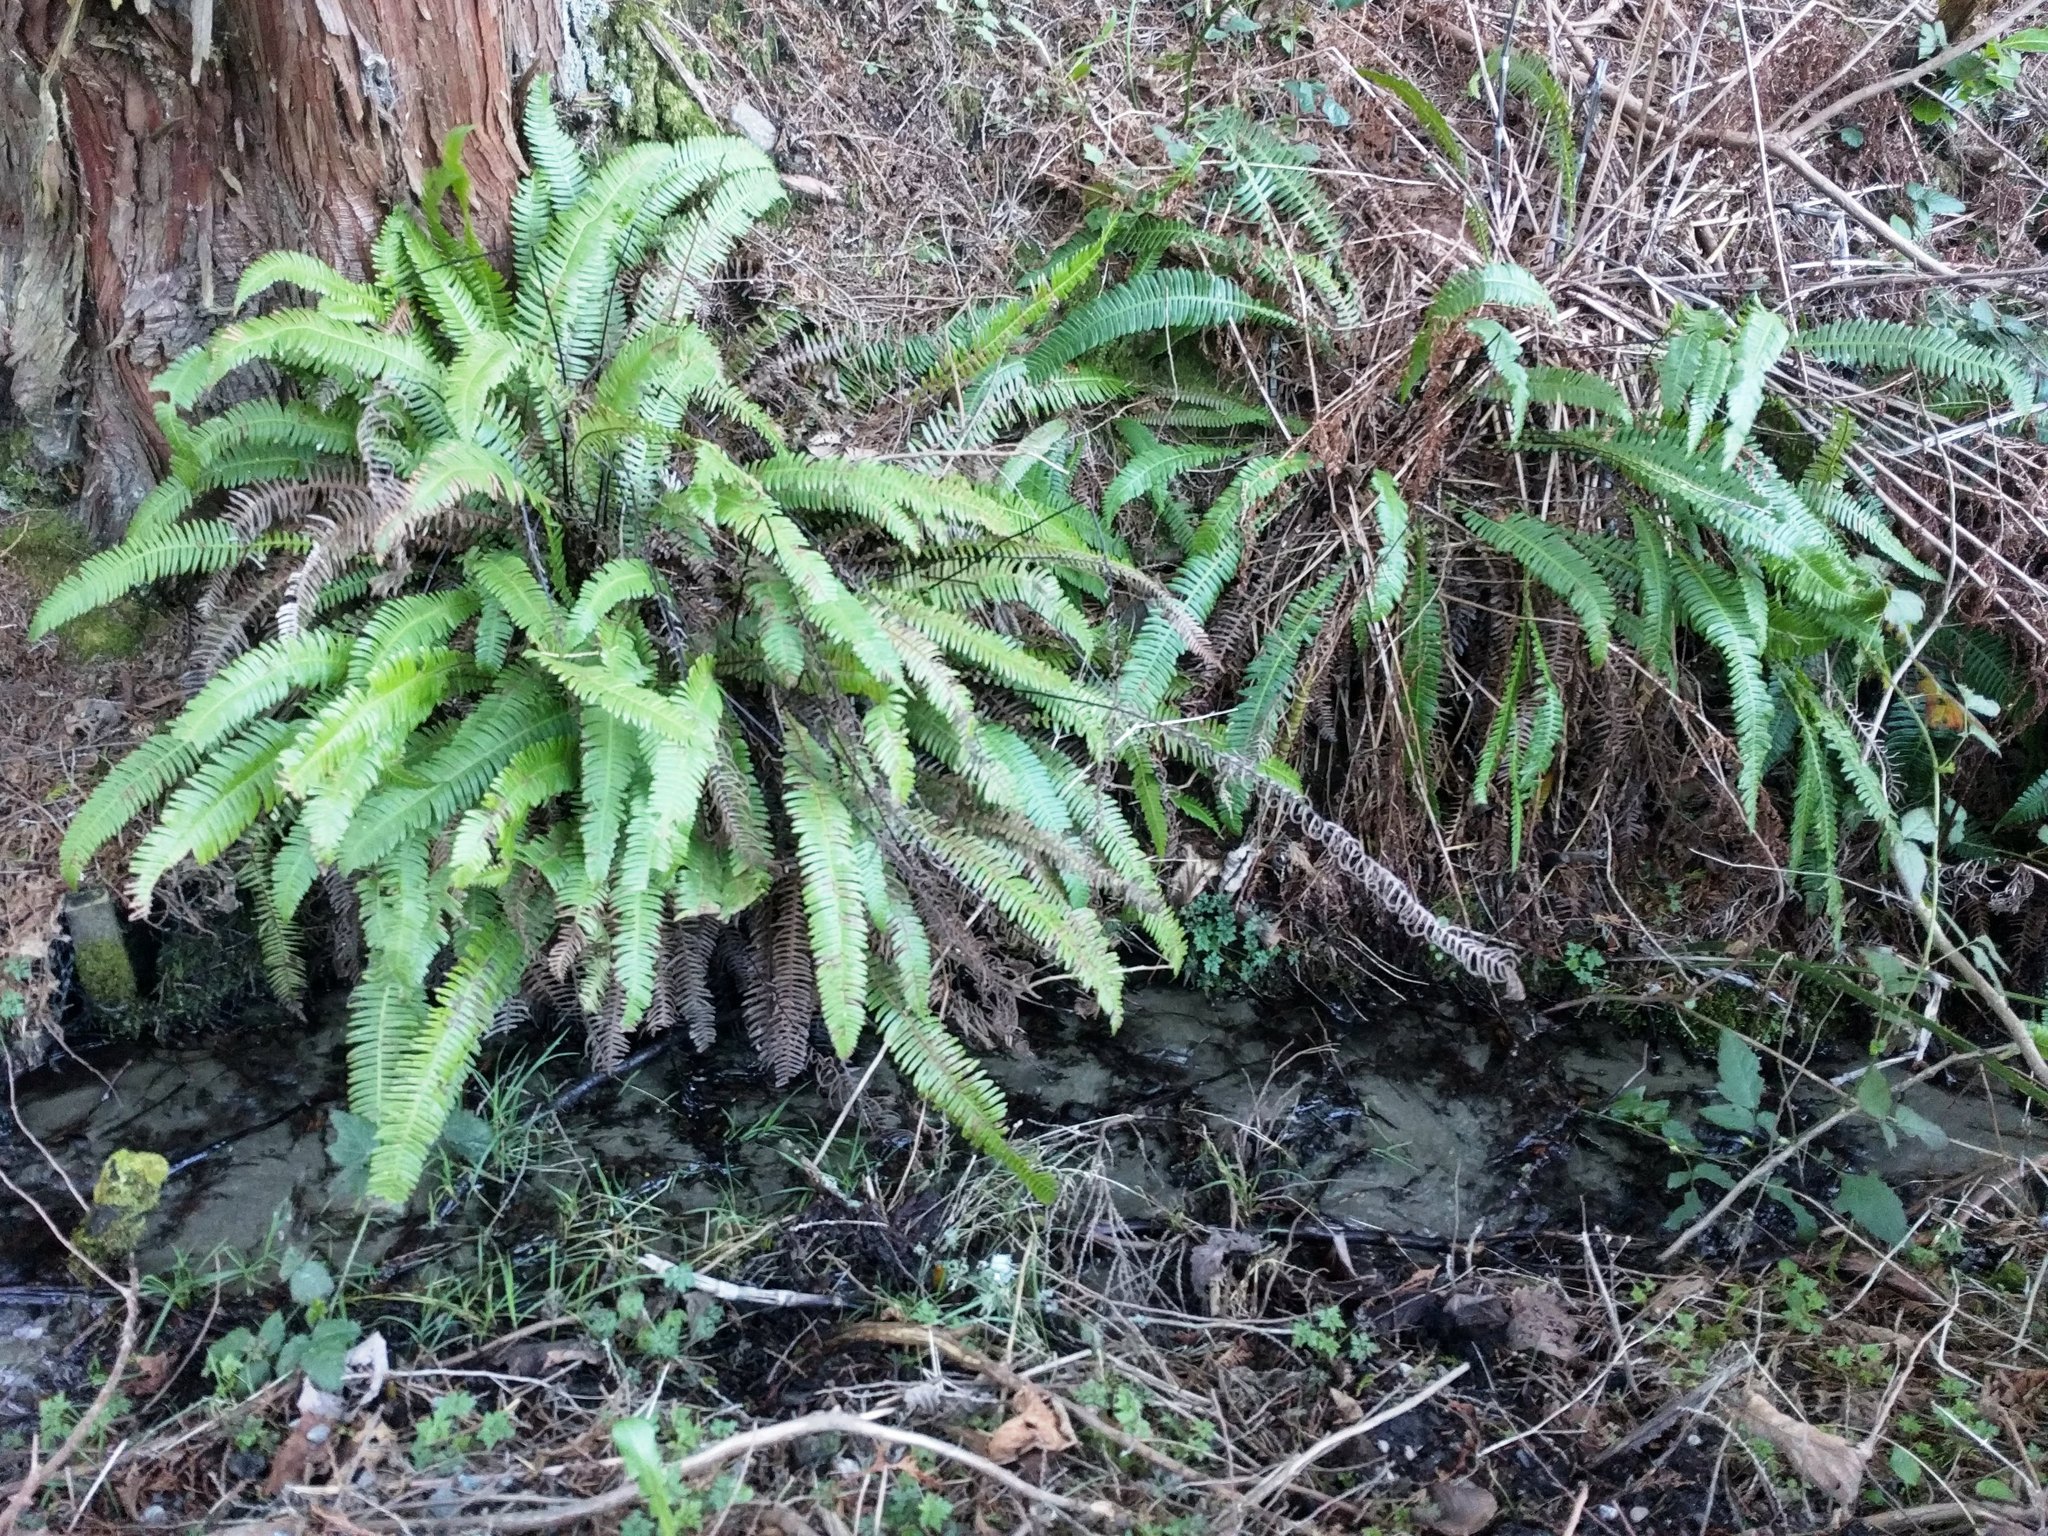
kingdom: Plantae
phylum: Tracheophyta
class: Polypodiopsida
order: Polypodiales
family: Blechnaceae
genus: Struthiopteris
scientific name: Struthiopteris spicant
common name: Deer fern
